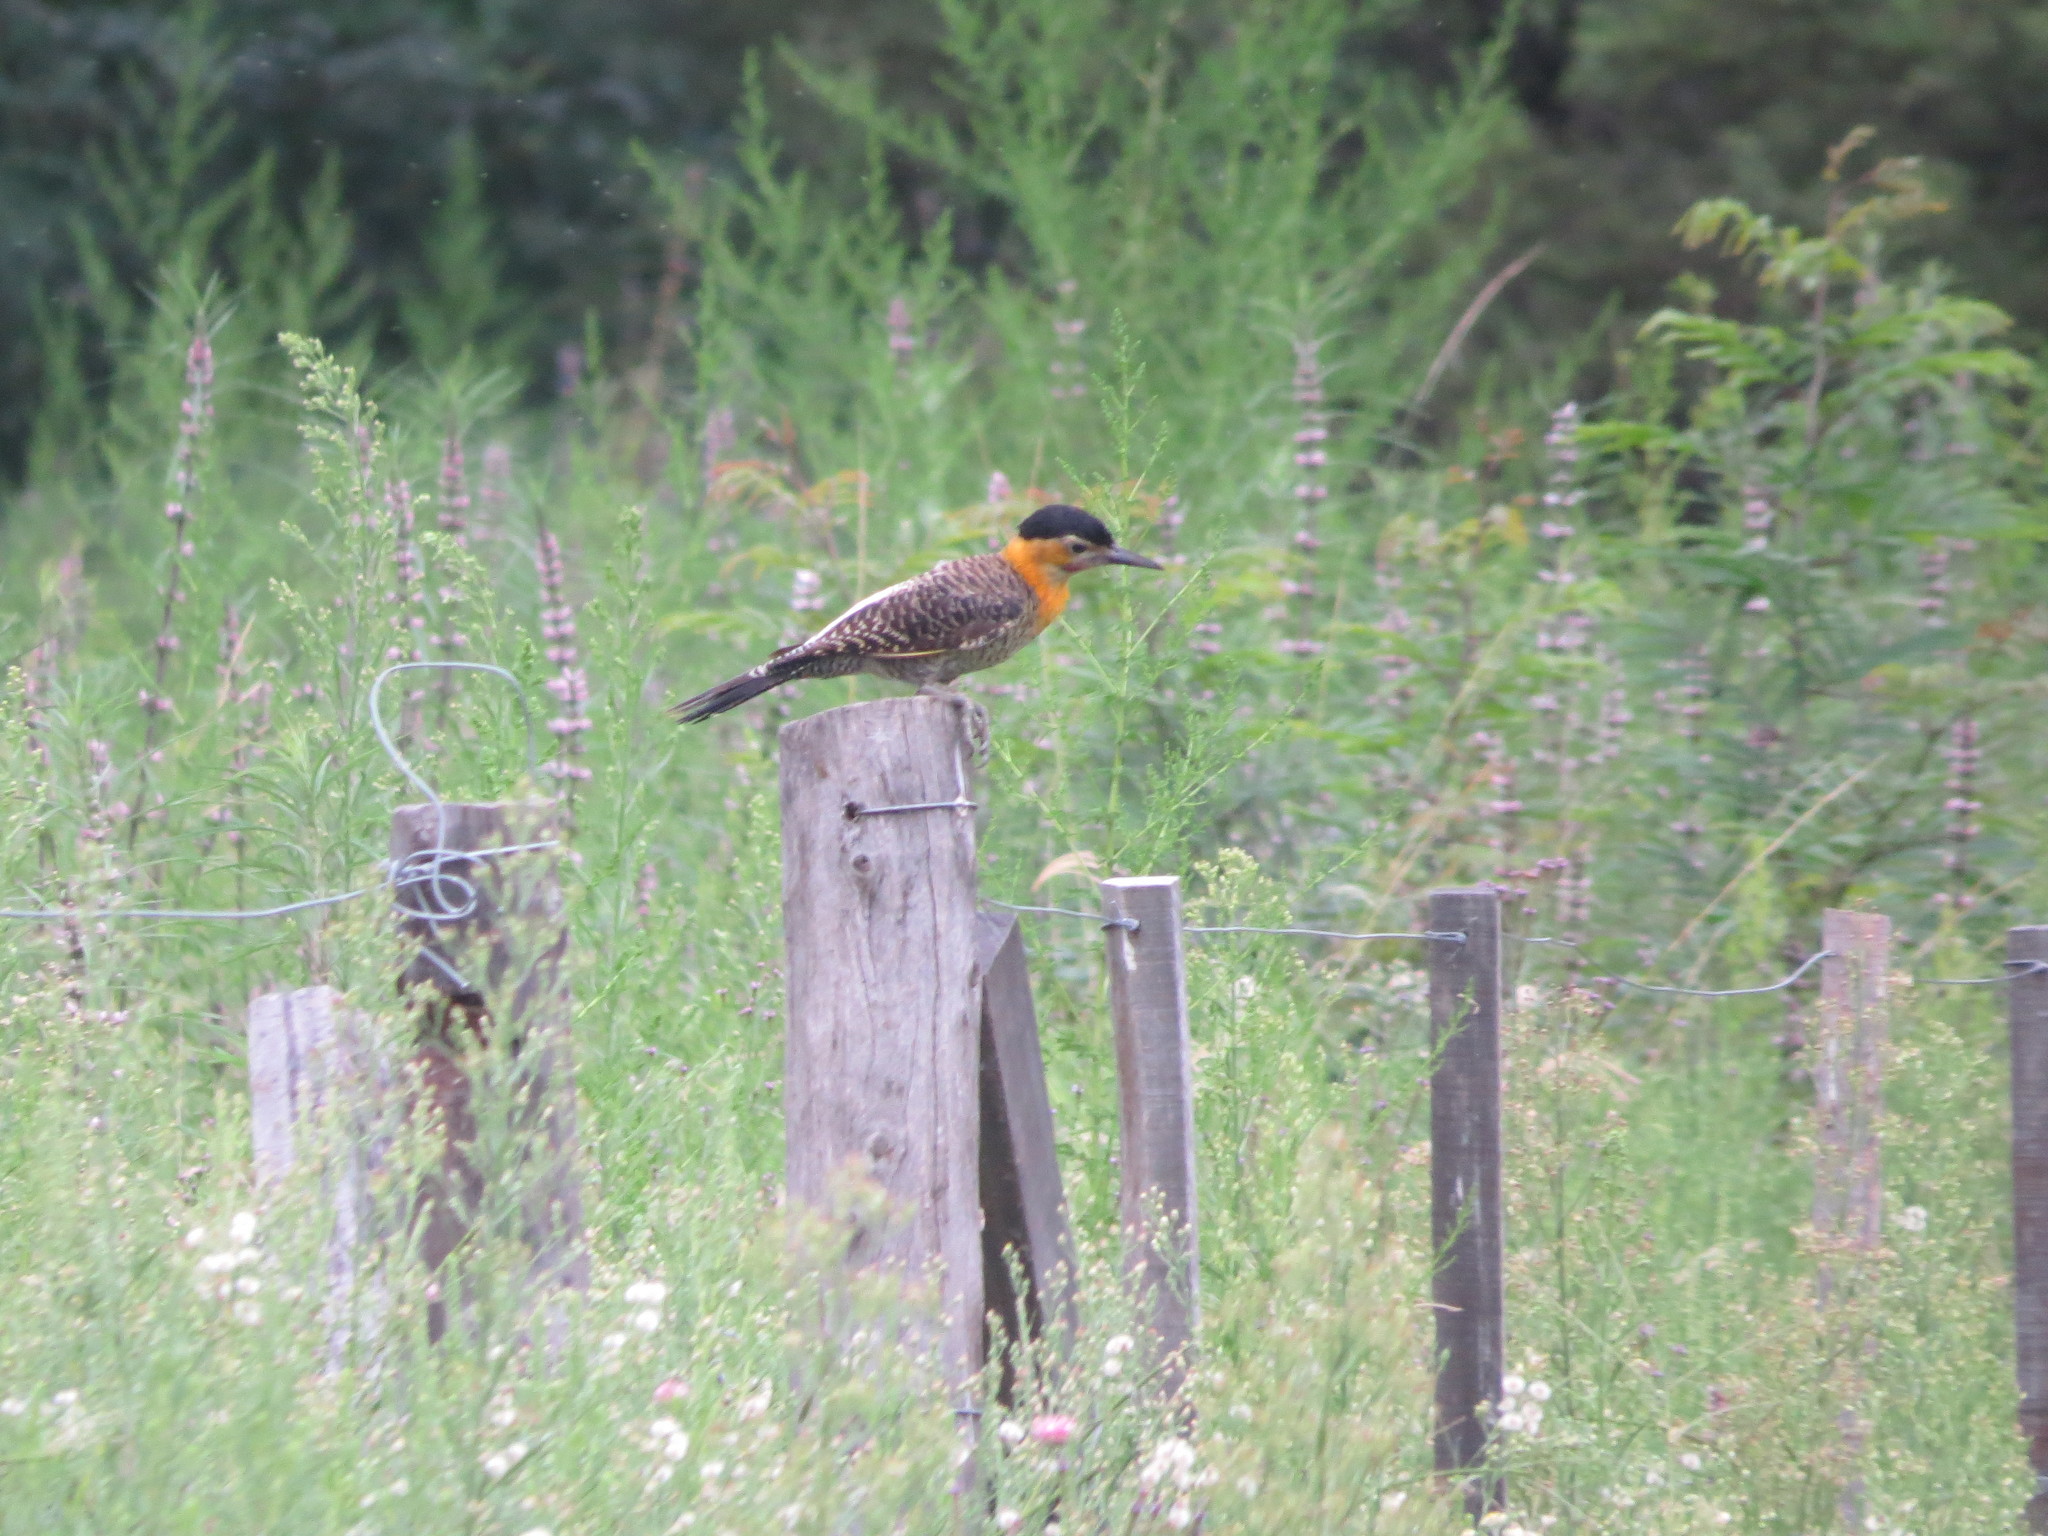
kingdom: Animalia
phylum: Chordata
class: Aves
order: Piciformes
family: Picidae
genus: Colaptes
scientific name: Colaptes campestris
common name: Campo flicker
